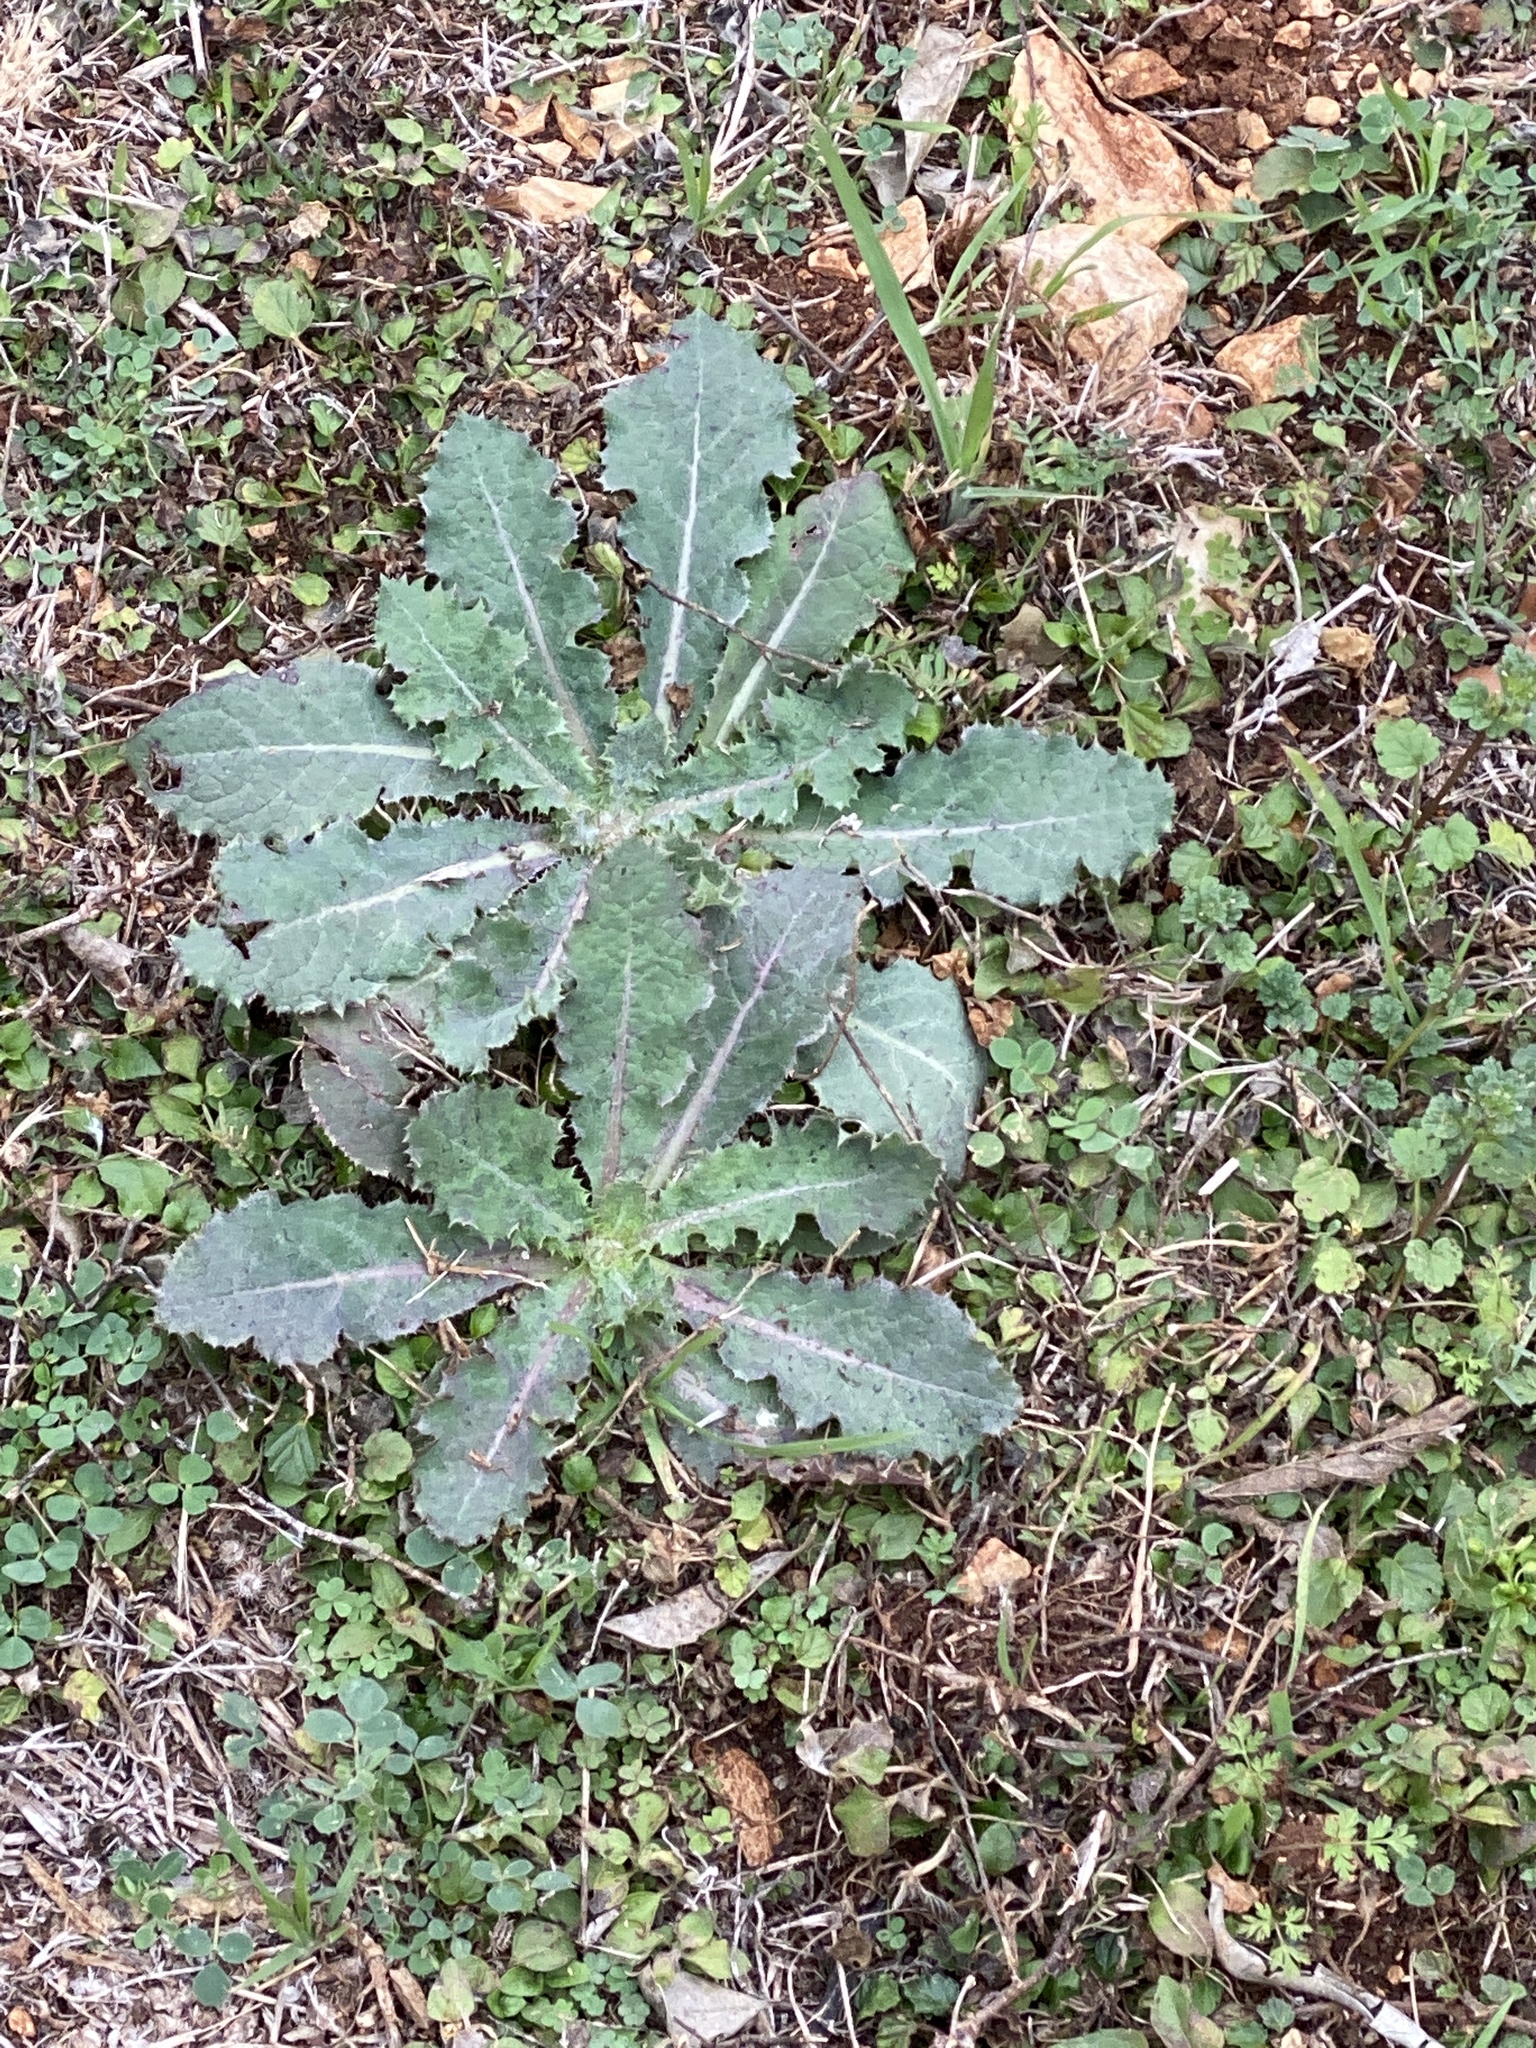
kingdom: Plantae
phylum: Tracheophyta
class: Magnoliopsida
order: Asterales
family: Asteraceae
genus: Sonchus
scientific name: Sonchus asper
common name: Prickly sow-thistle
